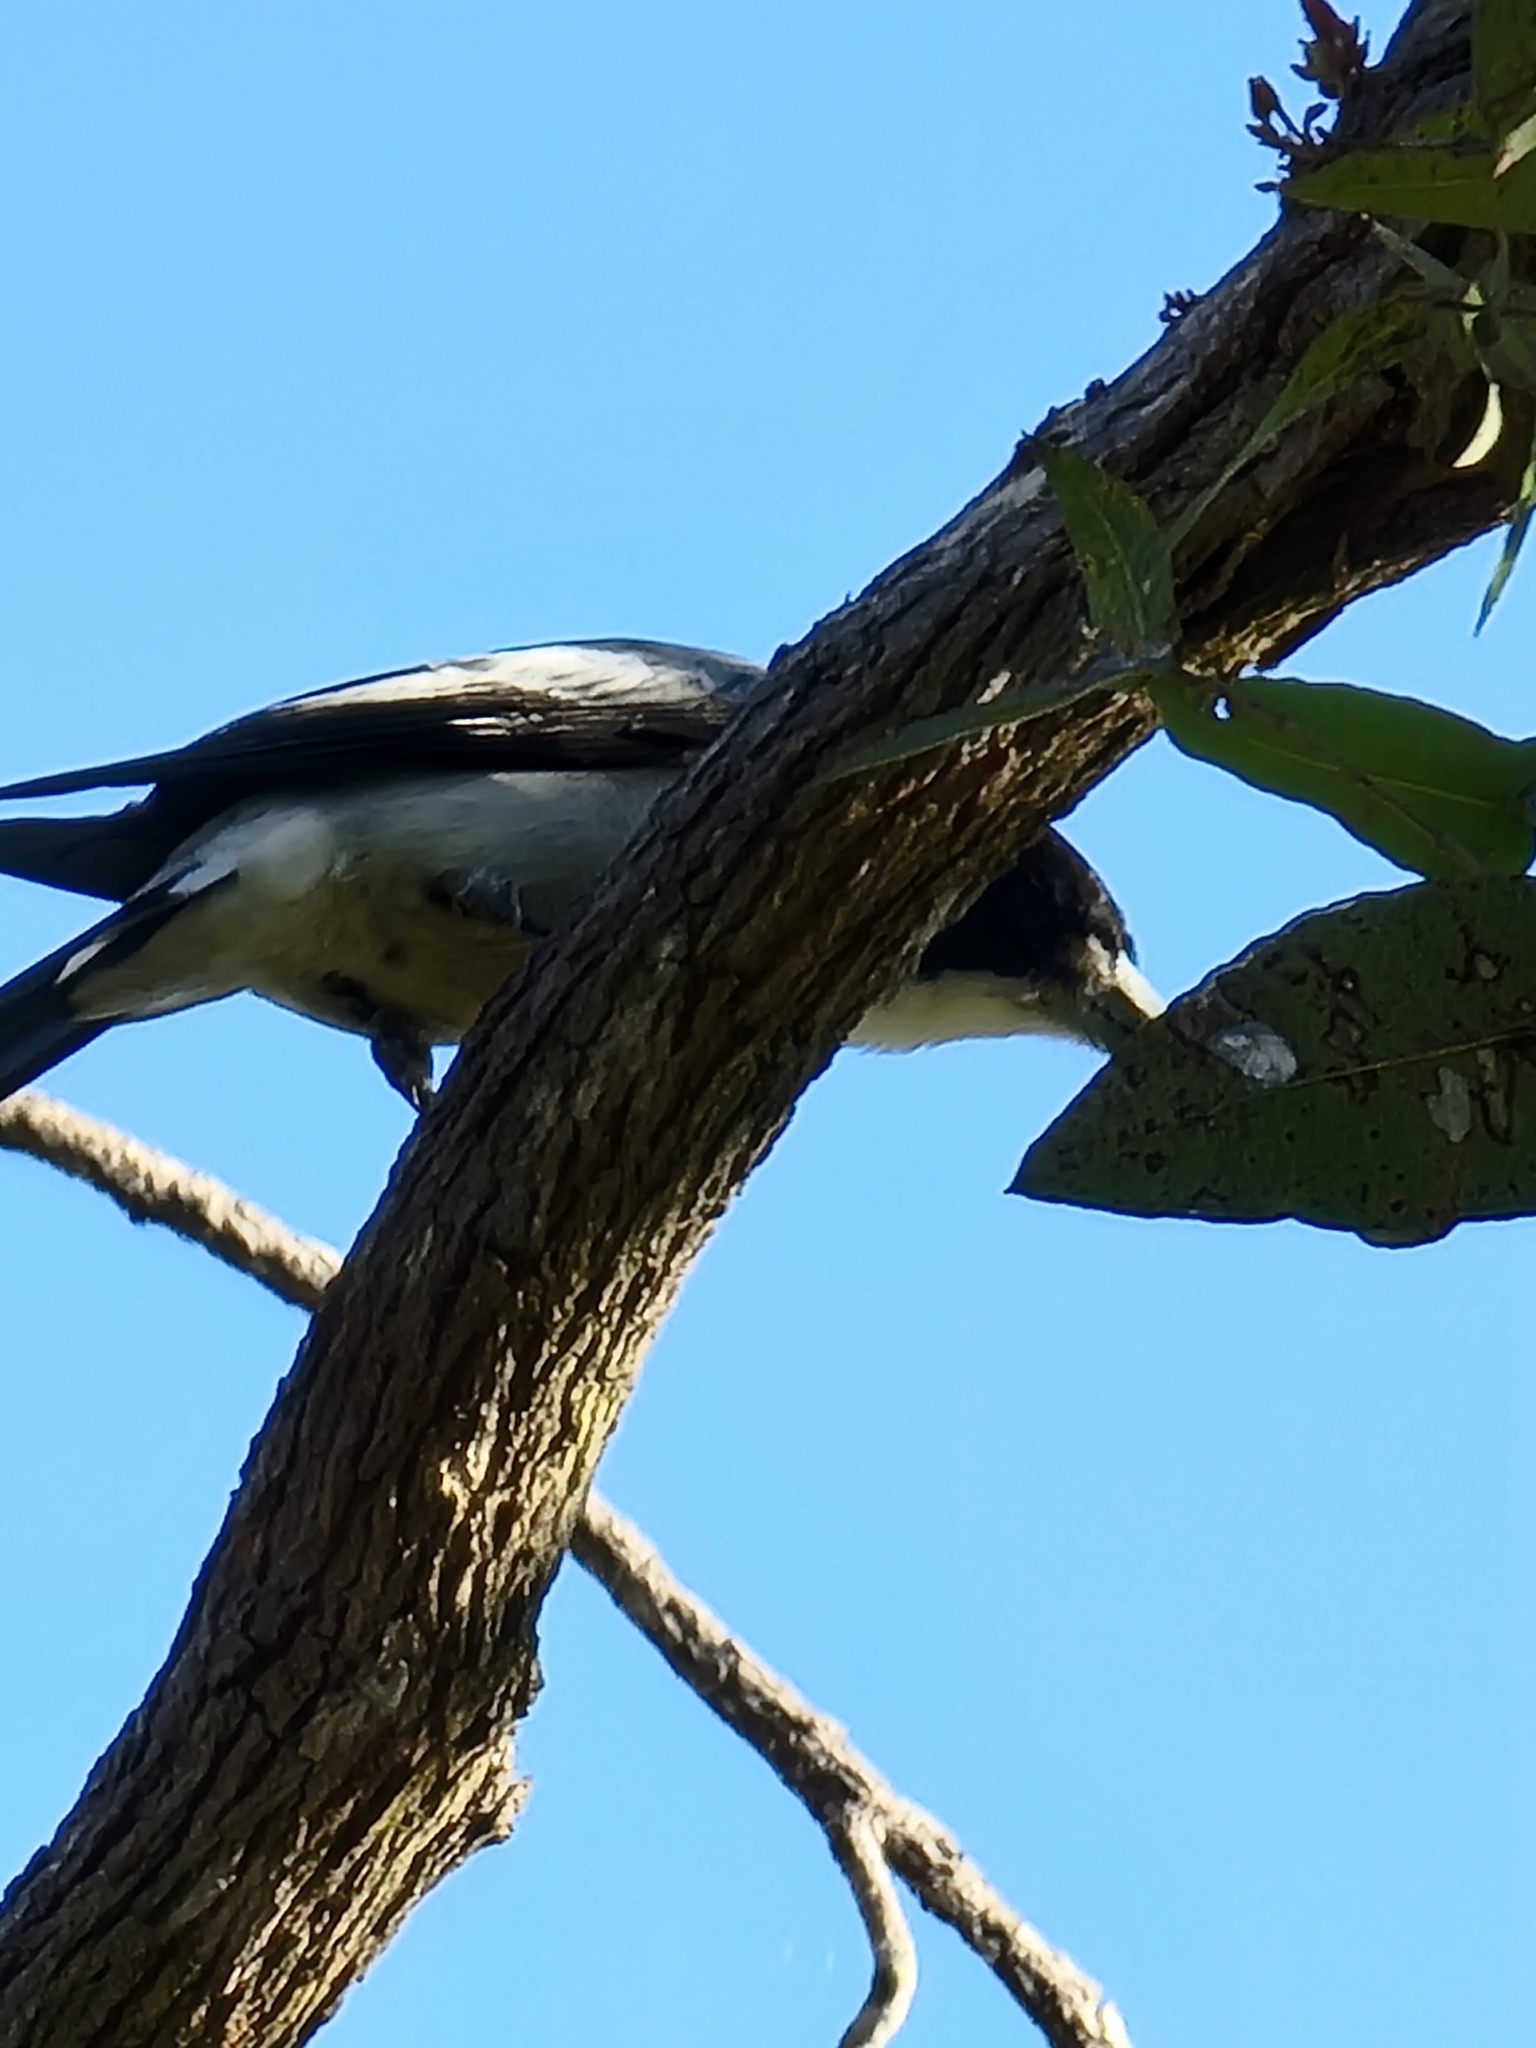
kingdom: Animalia
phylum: Chordata
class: Aves
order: Passeriformes
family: Cracticidae
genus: Cracticus
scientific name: Cracticus torquatus
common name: Grey butcherbird
